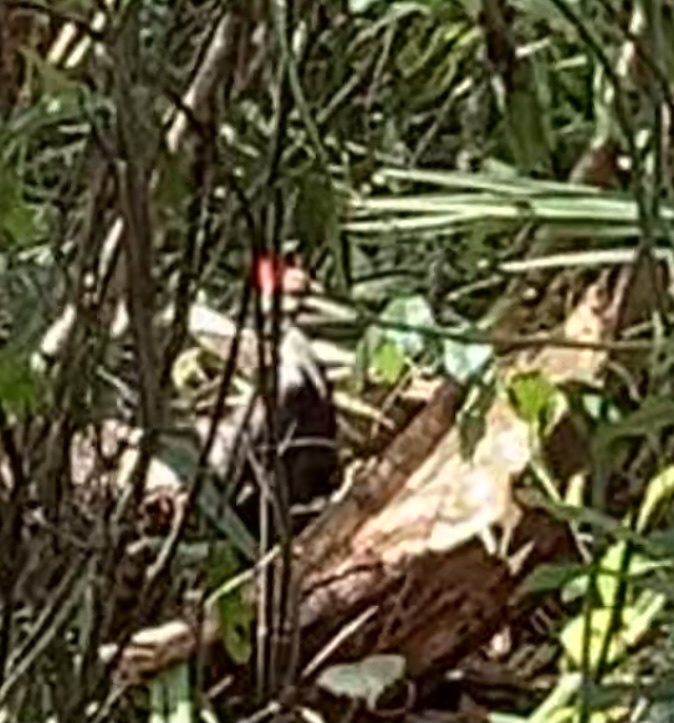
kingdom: Animalia
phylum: Chordata
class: Aves
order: Piciformes
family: Picidae
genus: Dryocopus
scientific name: Dryocopus pileatus
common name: Pileated woodpecker
